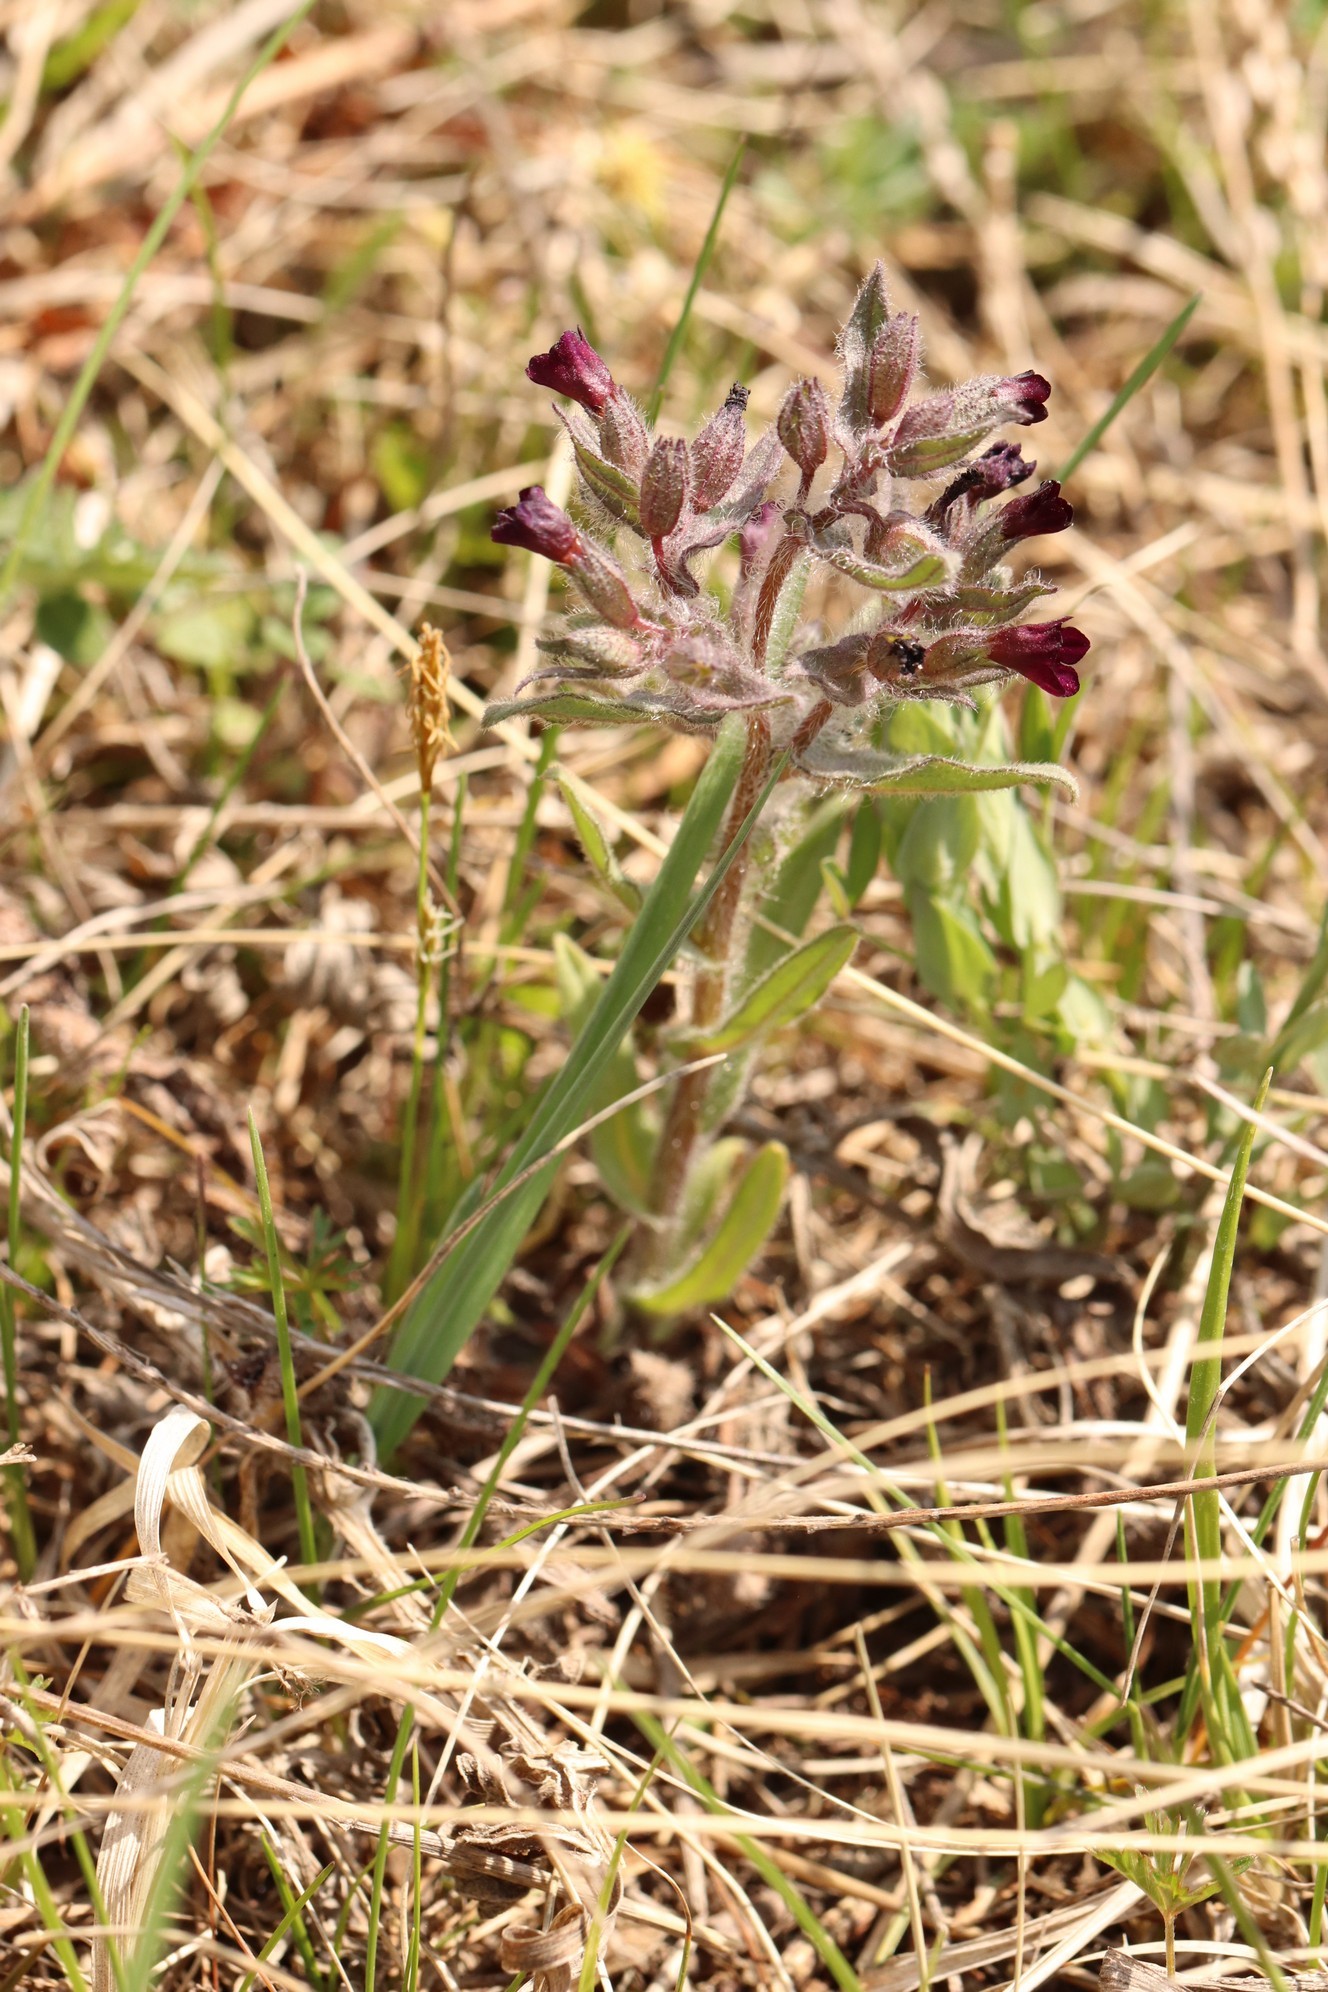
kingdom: Plantae
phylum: Tracheophyta
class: Magnoliopsida
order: Boraginales
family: Boraginaceae
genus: Nonea
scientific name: Nonea pulla
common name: Brown nonea
